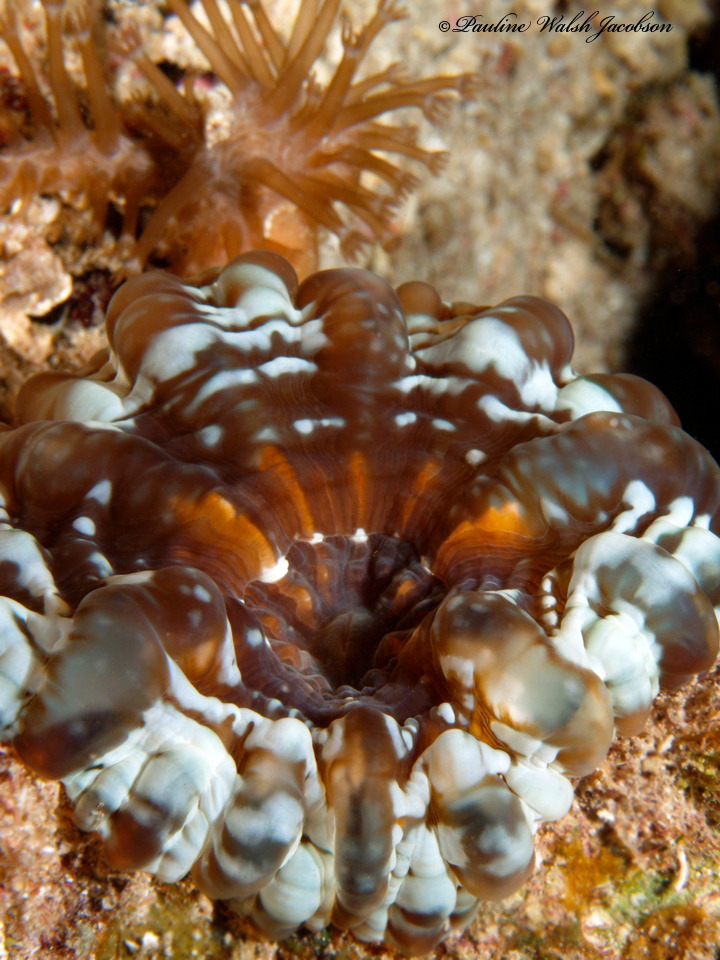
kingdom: Animalia
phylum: Cnidaria
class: Anthozoa
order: Scleractinia
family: Lobophylliidae
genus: Cynarina
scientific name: Cynarina lacrymalis
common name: Solitary cup coral
